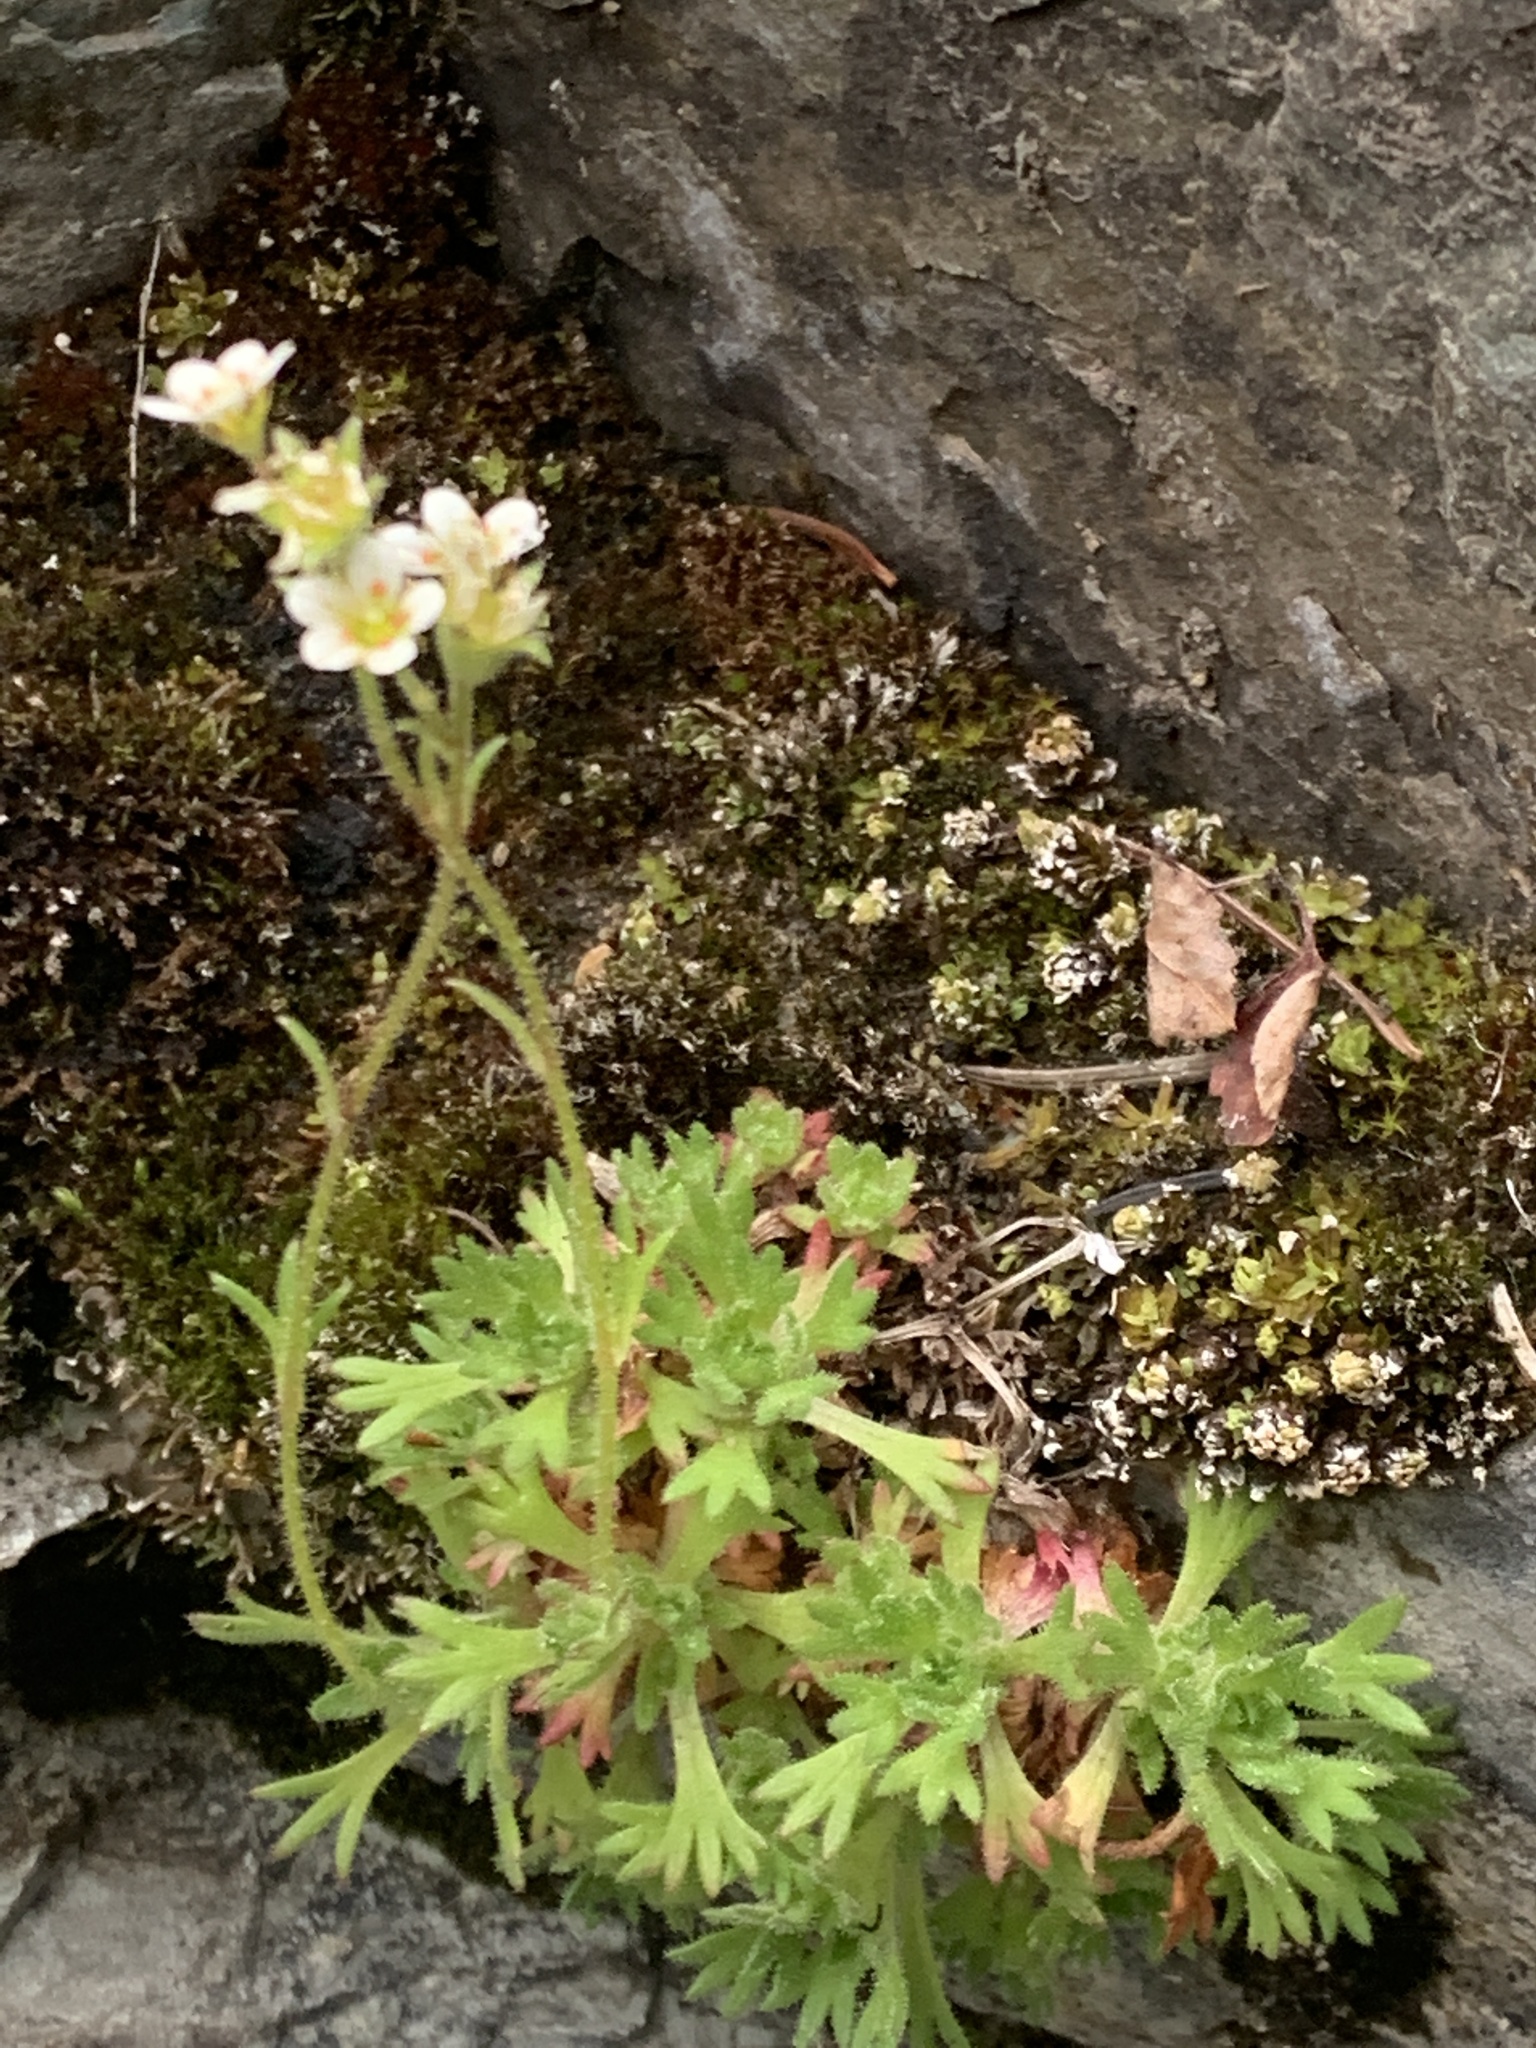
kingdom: Plantae
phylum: Tracheophyta
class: Magnoliopsida
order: Saxifragales
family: Saxifragaceae
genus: Saxifraga
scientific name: Saxifraga cespitosa
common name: Tufted saxifrage
